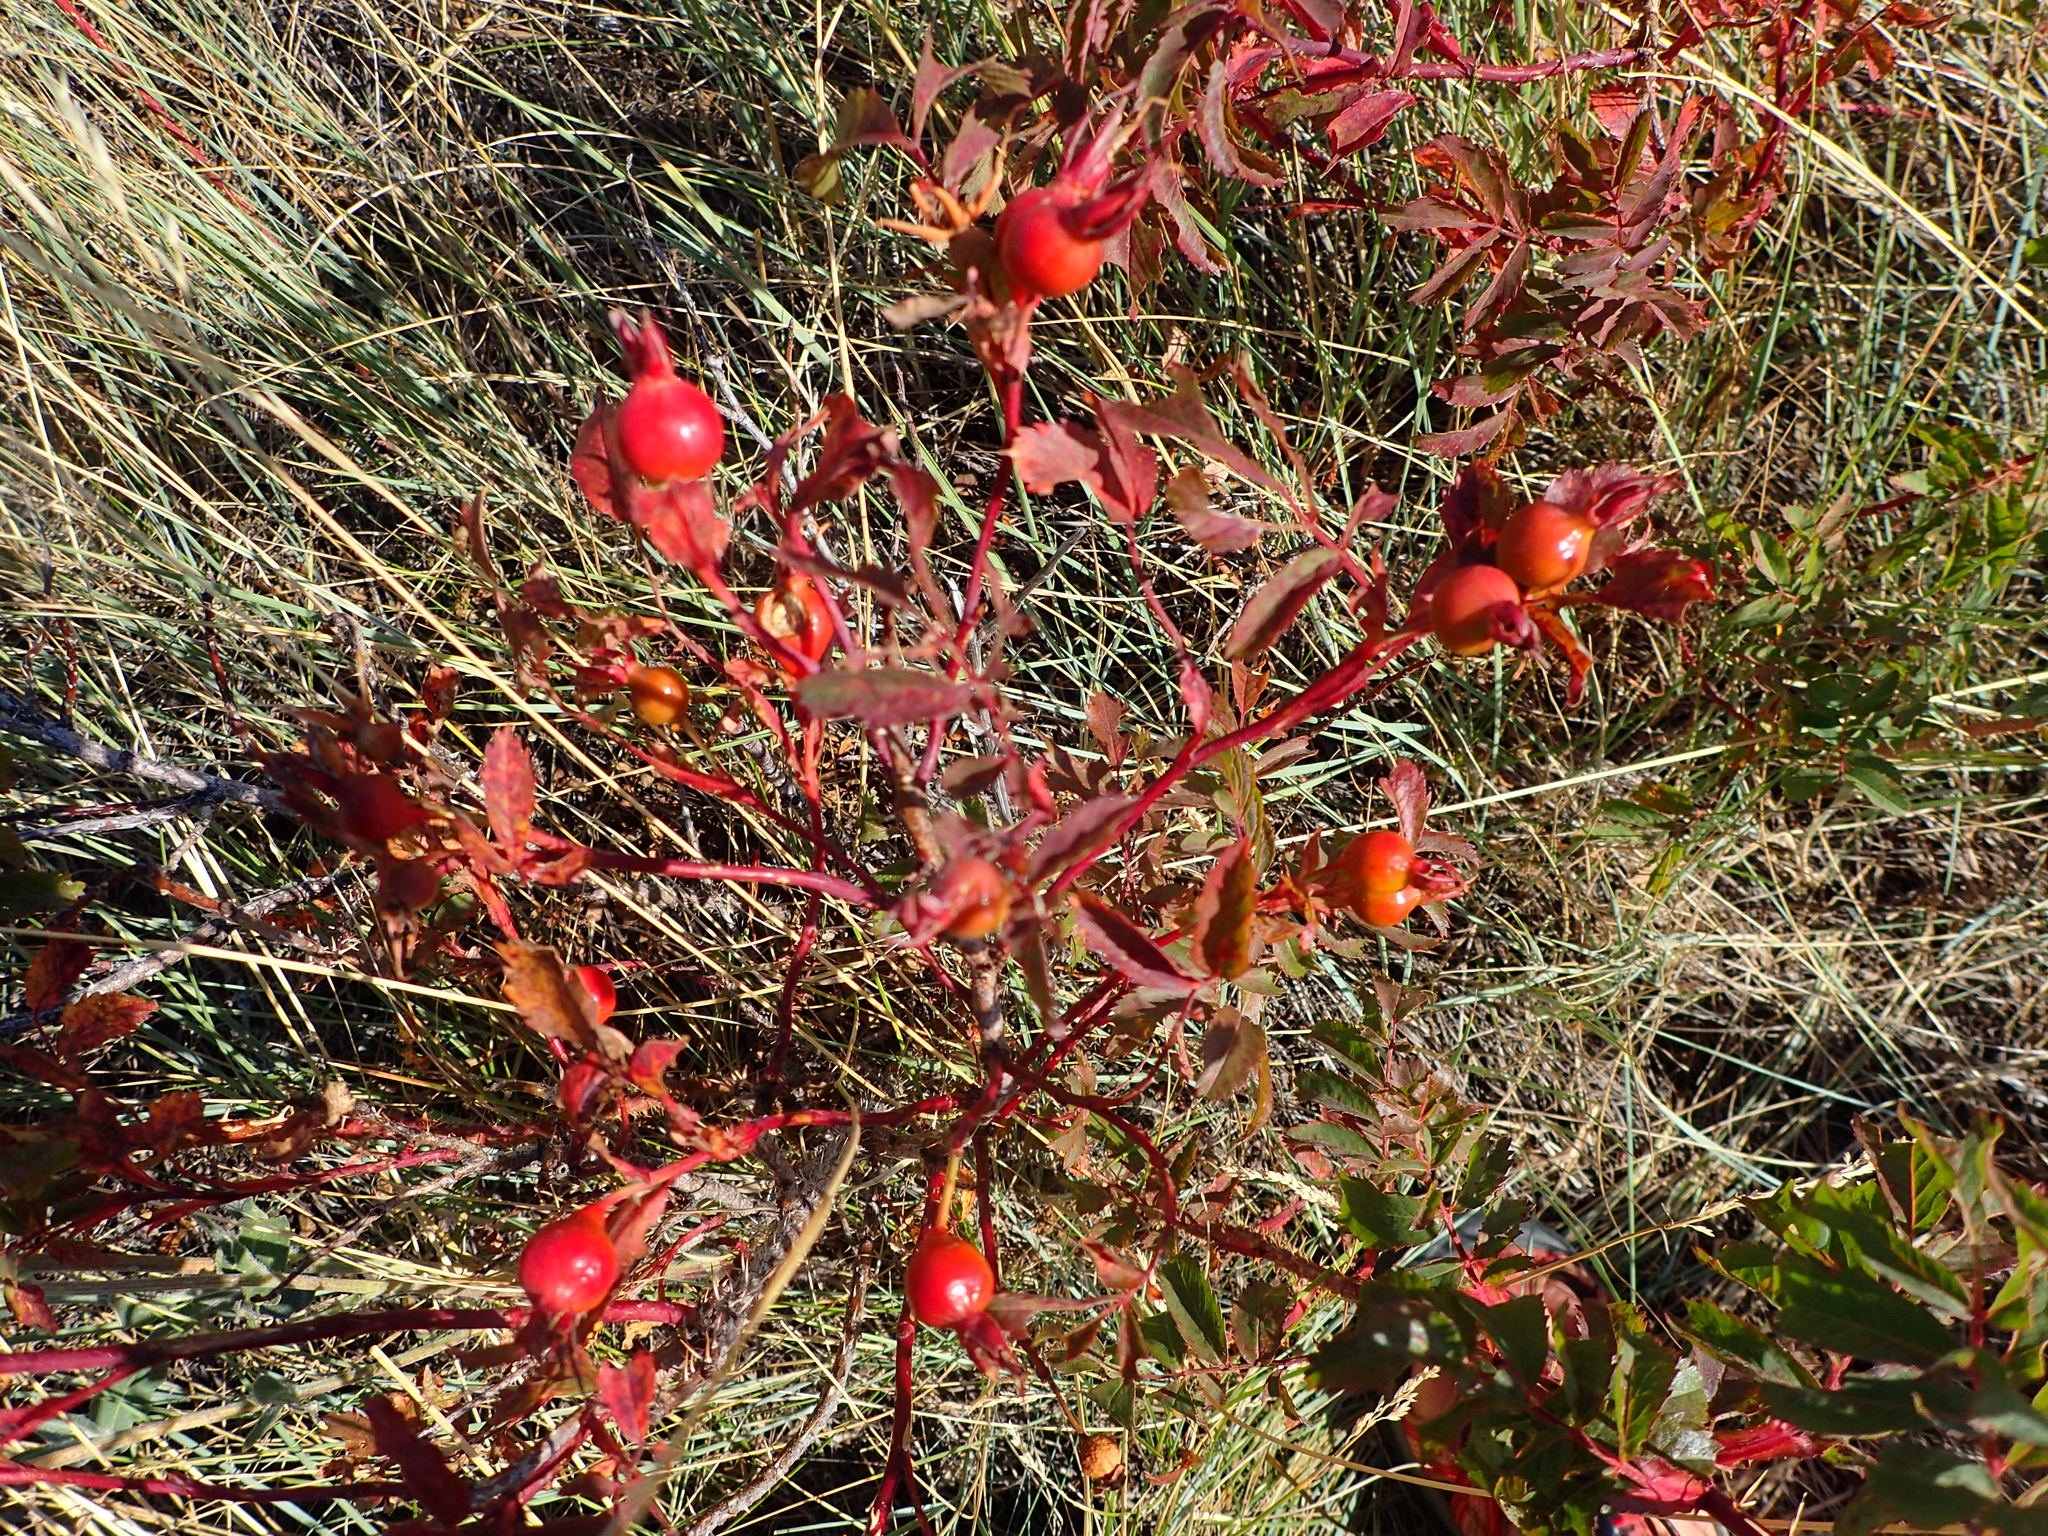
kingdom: Plantae
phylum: Tracheophyta
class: Magnoliopsida
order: Rosales
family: Rosaceae
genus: Rosa
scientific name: Rosa woodsii
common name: Woods's rose
